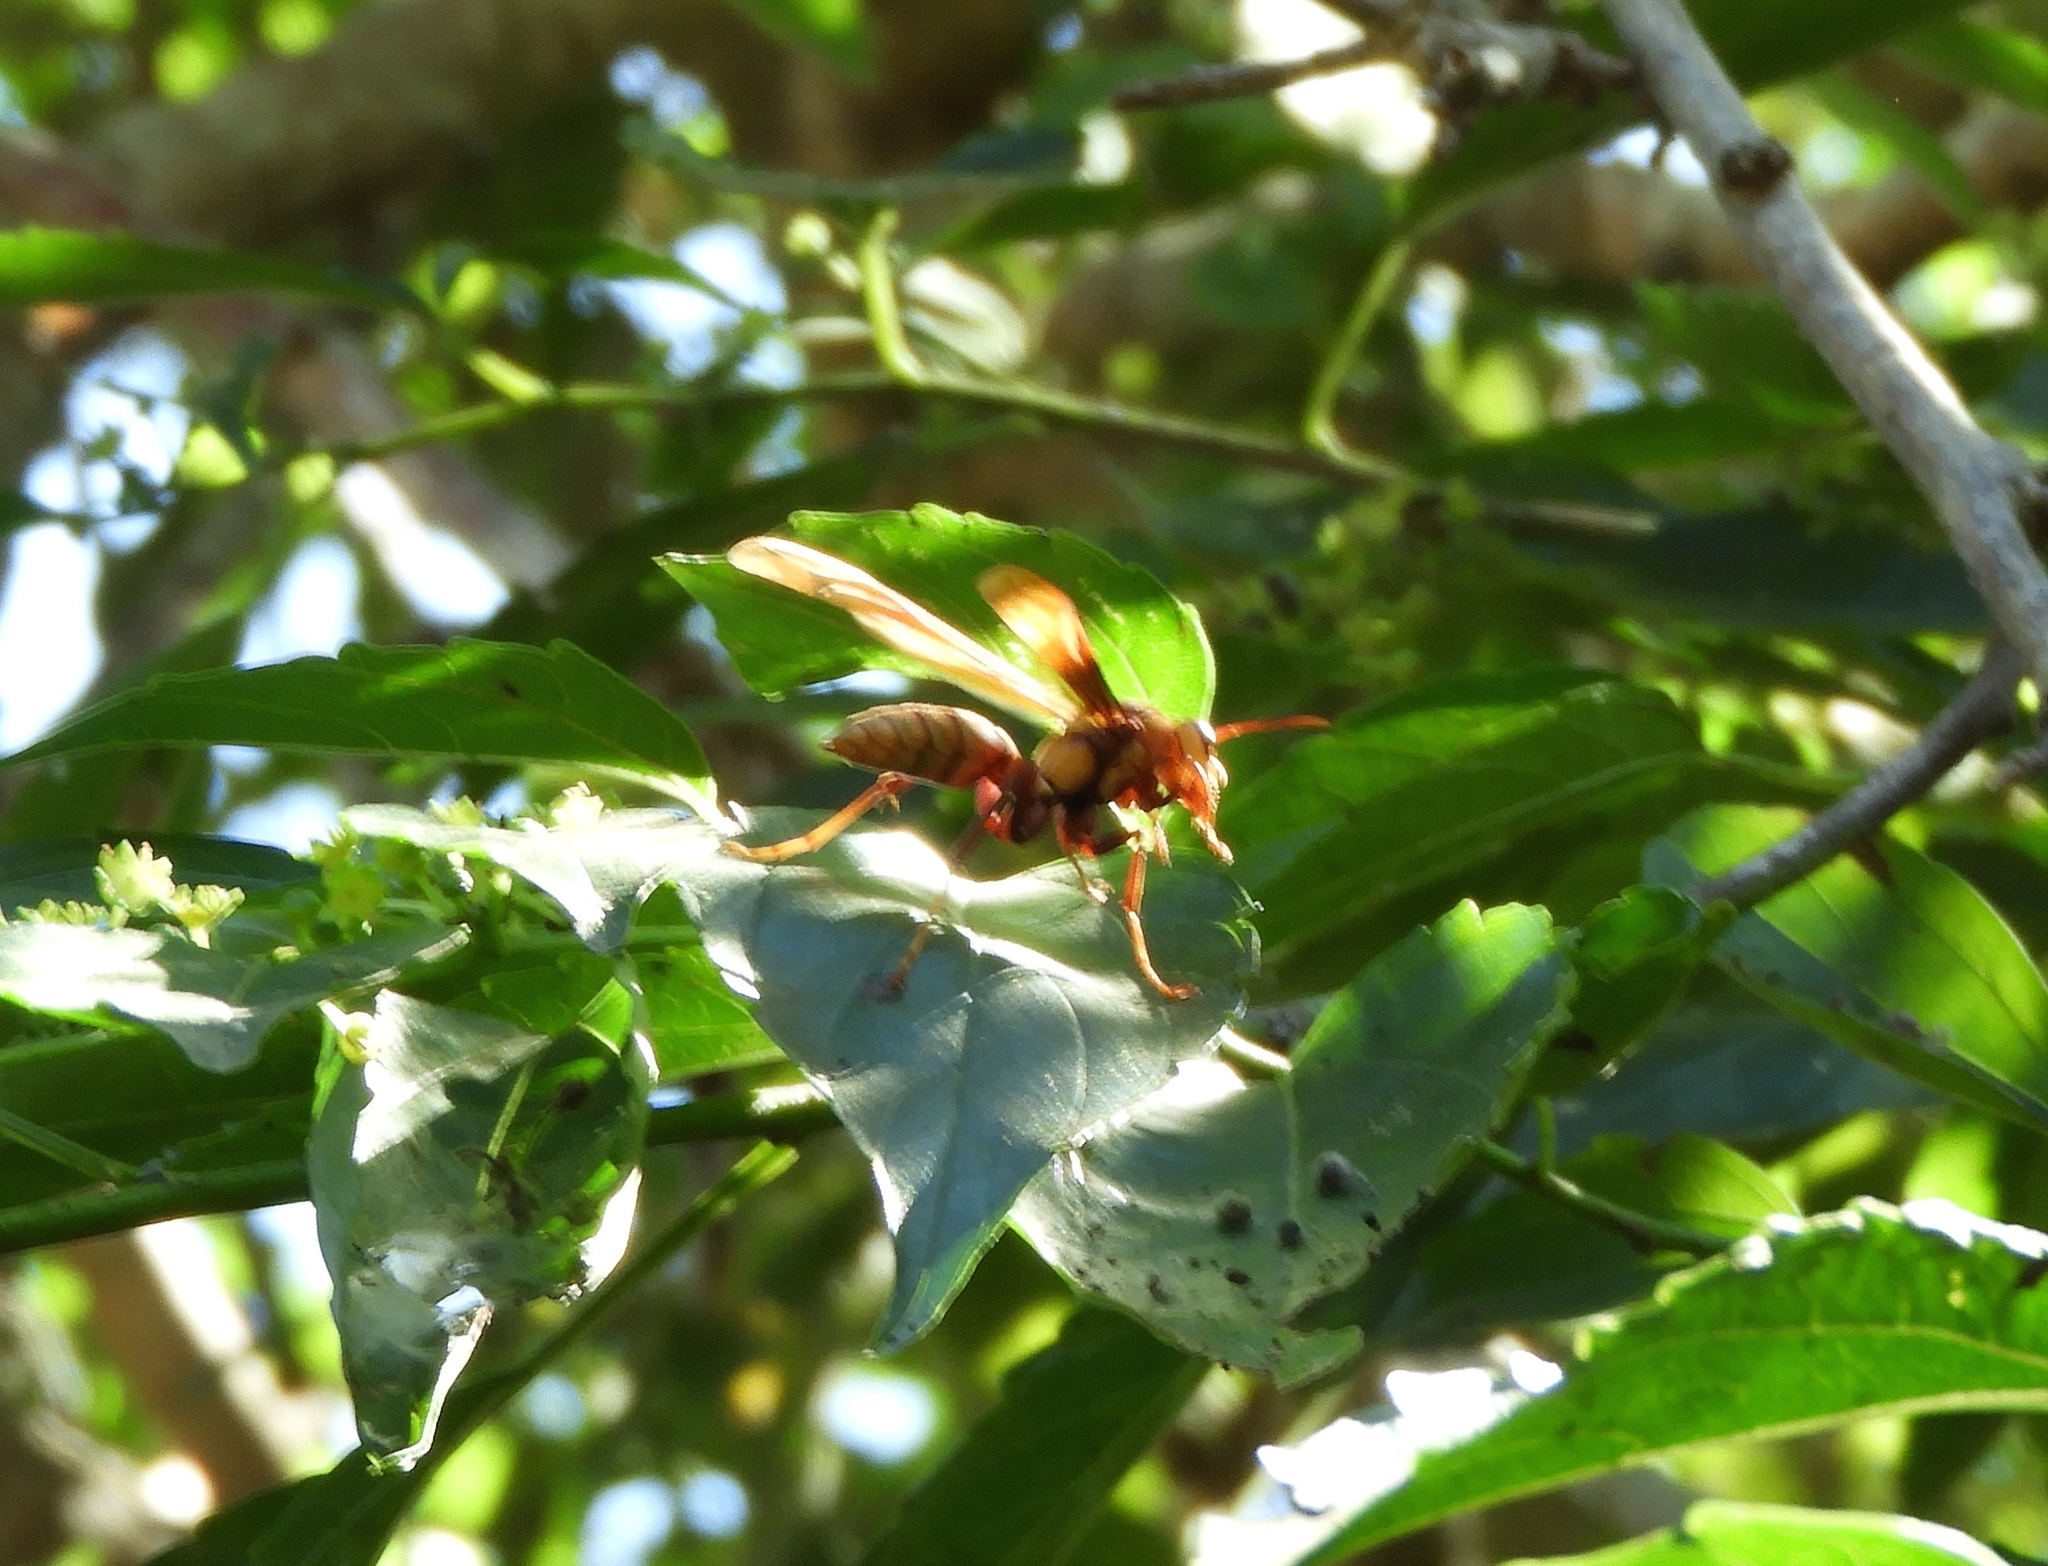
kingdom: Animalia
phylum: Arthropoda
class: Insecta
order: Hymenoptera
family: Eumenidae
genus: Polistes
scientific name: Polistes major
